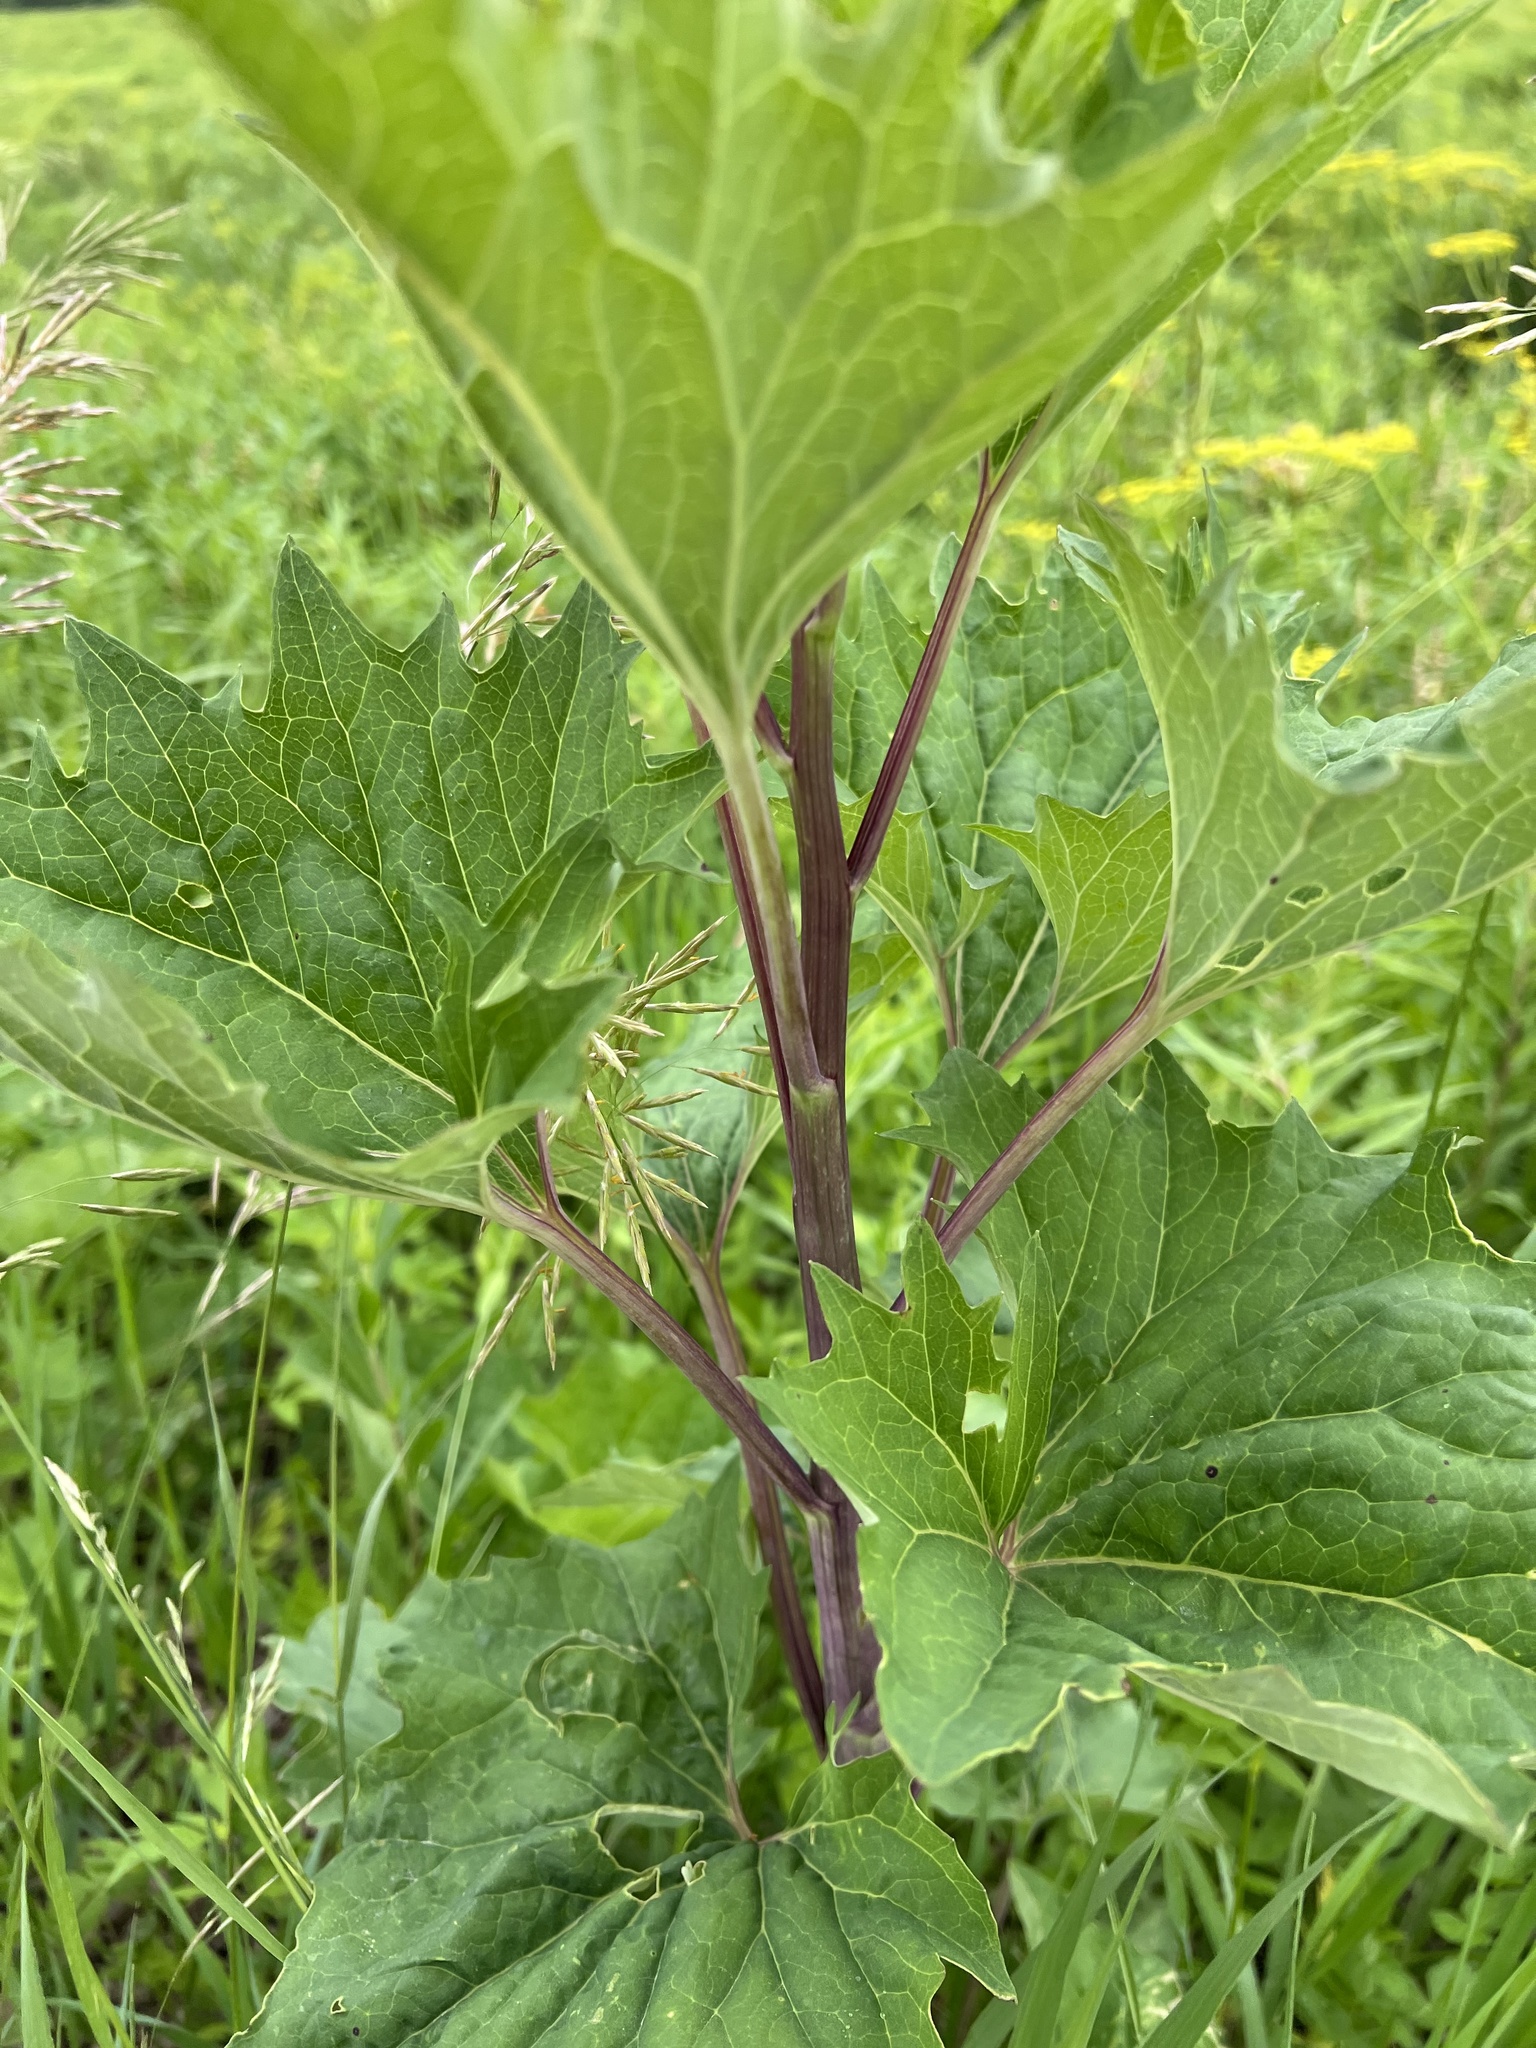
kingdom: Plantae
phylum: Tracheophyta
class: Magnoliopsida
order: Asterales
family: Asteraceae
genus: Arnoglossum
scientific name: Arnoglossum atriplicifolium
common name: Pale indian-plantain
